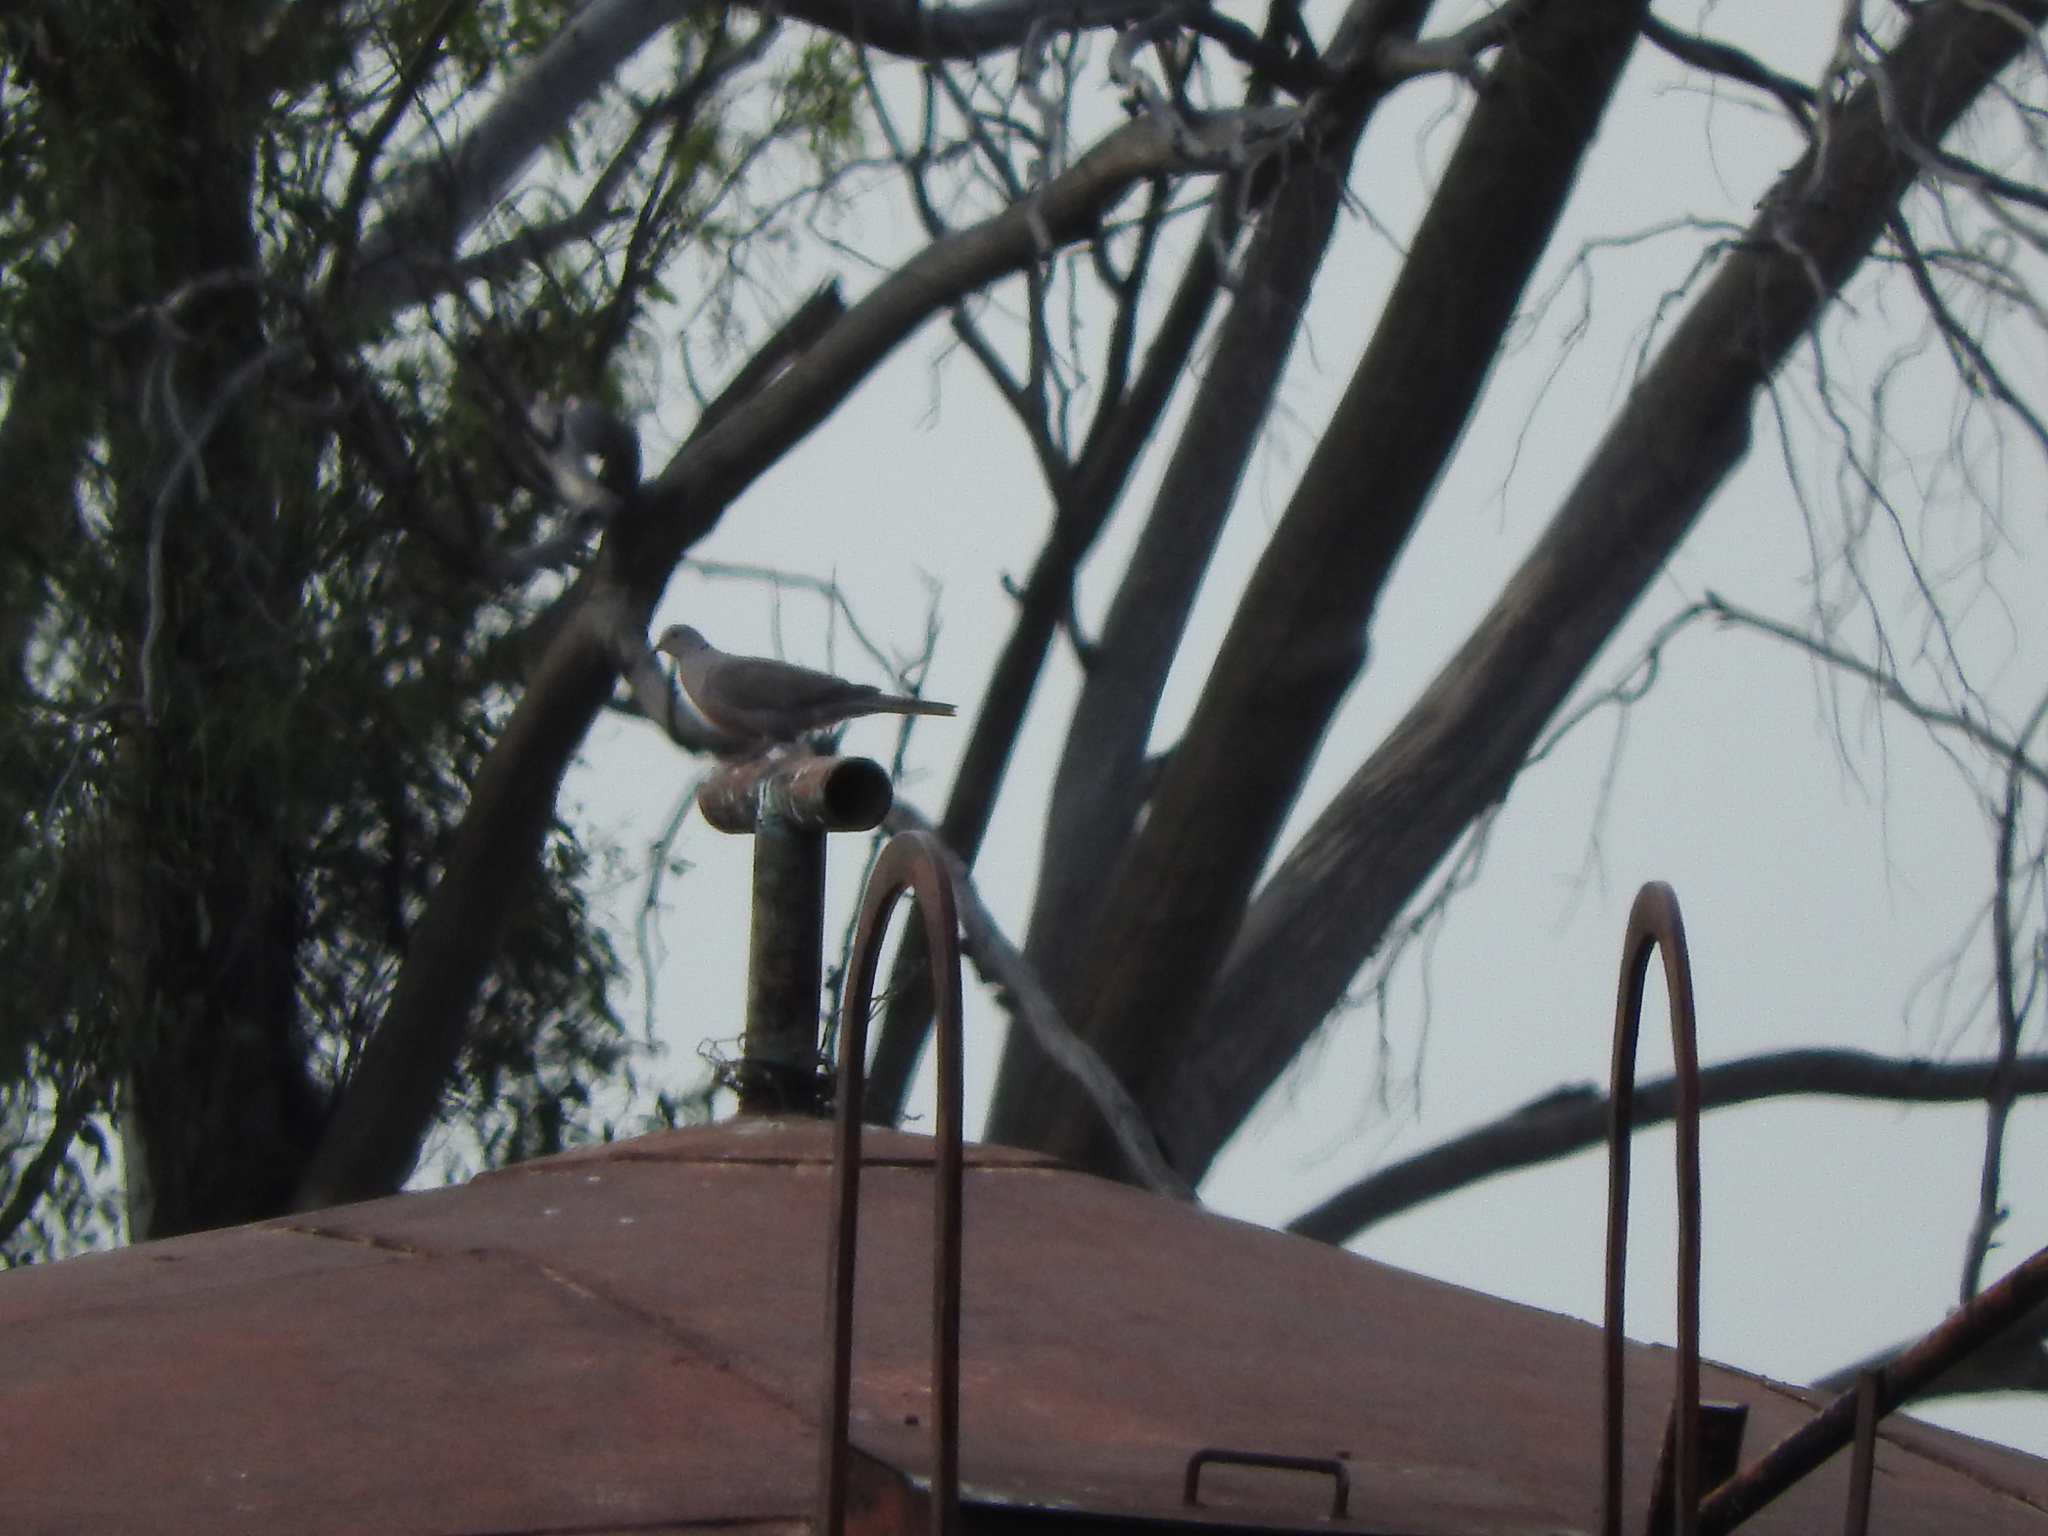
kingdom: Animalia
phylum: Chordata
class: Aves
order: Columbiformes
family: Columbidae
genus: Streptopelia
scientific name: Streptopelia decaocto
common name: Eurasian collared dove
